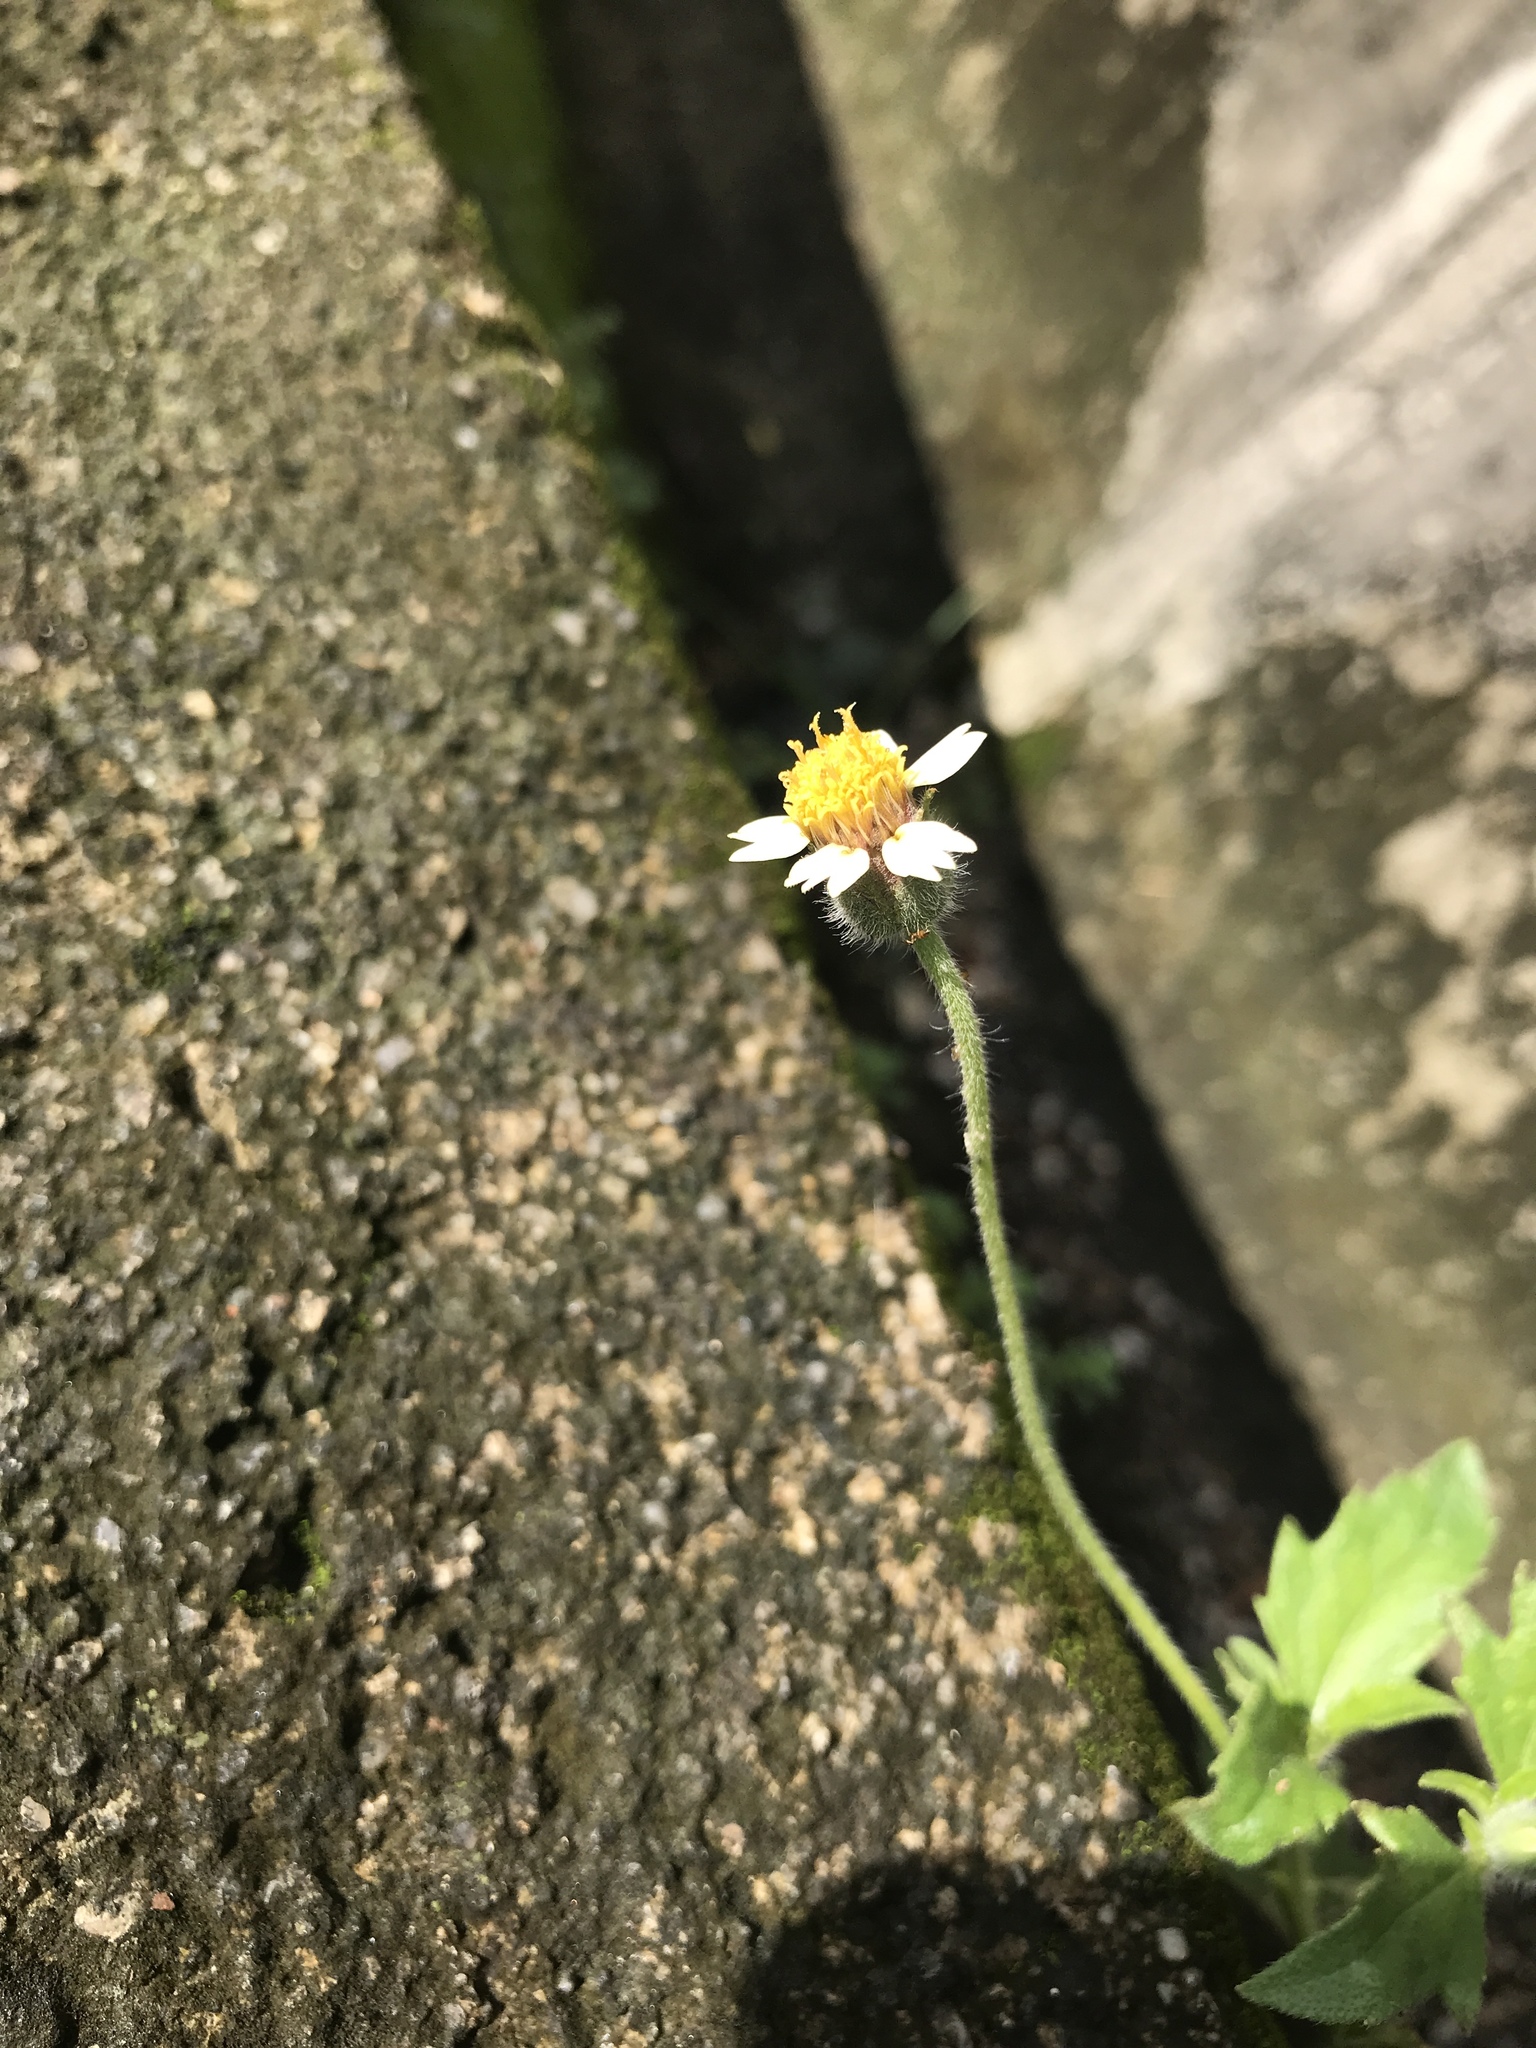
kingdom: Plantae
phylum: Tracheophyta
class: Magnoliopsida
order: Asterales
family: Asteraceae
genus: Tridax
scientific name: Tridax procumbens
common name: Coatbuttons
